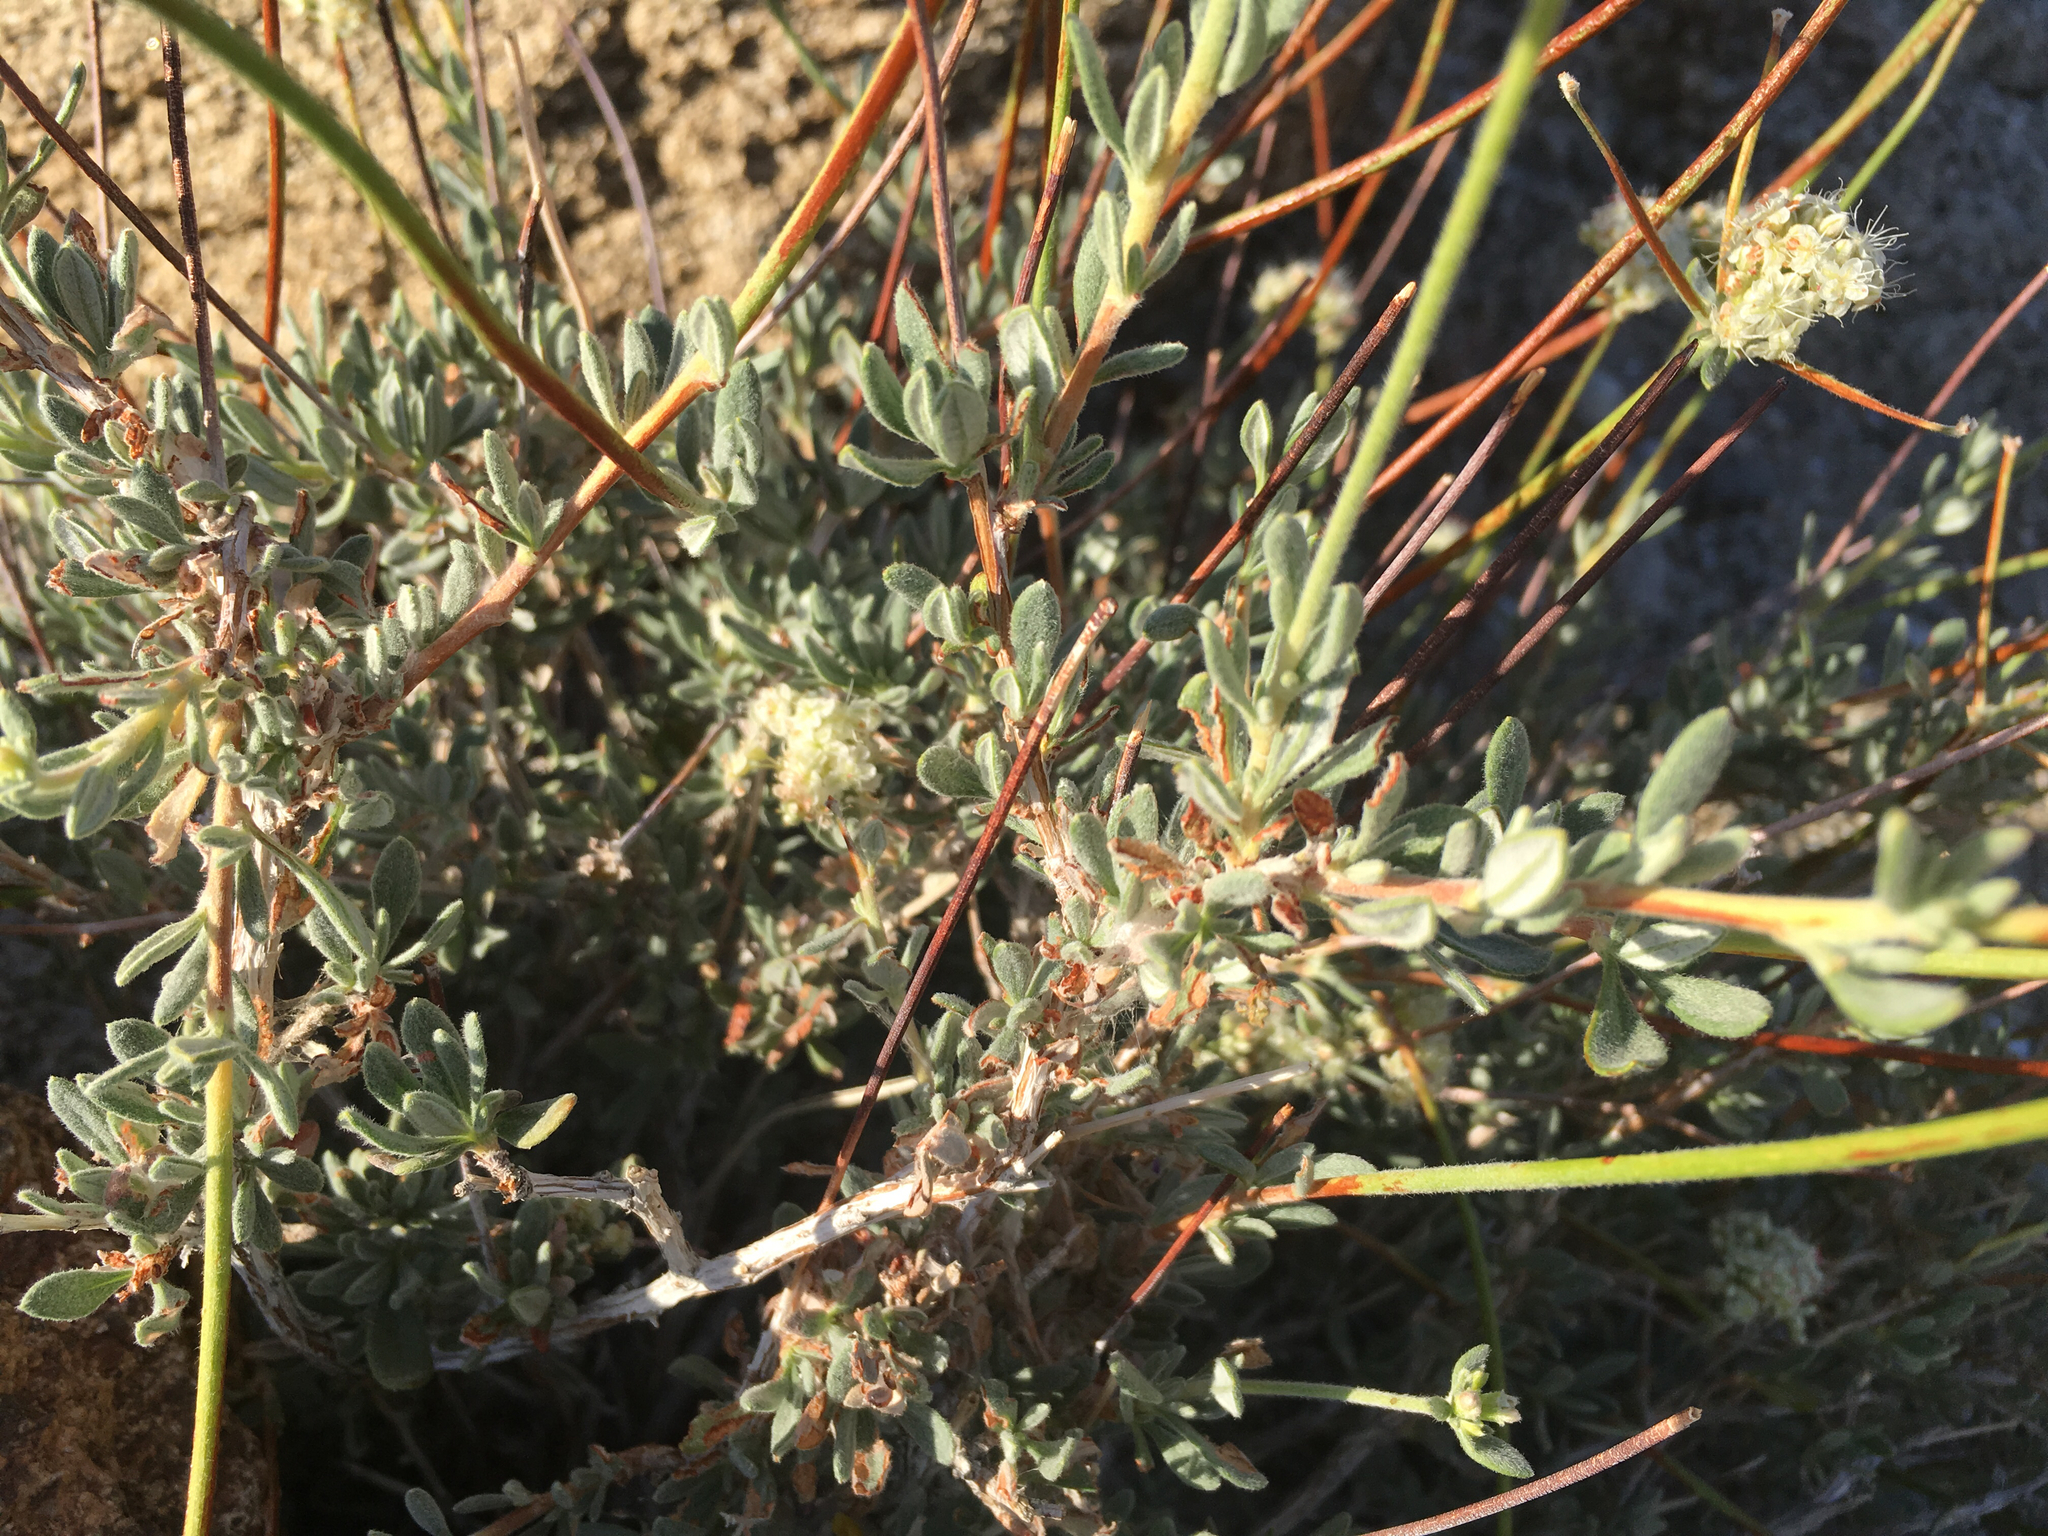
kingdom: Plantae
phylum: Tracheophyta
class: Magnoliopsida
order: Caryophyllales
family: Polygonaceae
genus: Eriogonum
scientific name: Eriogonum fasciculatum
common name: California wild buckwheat
